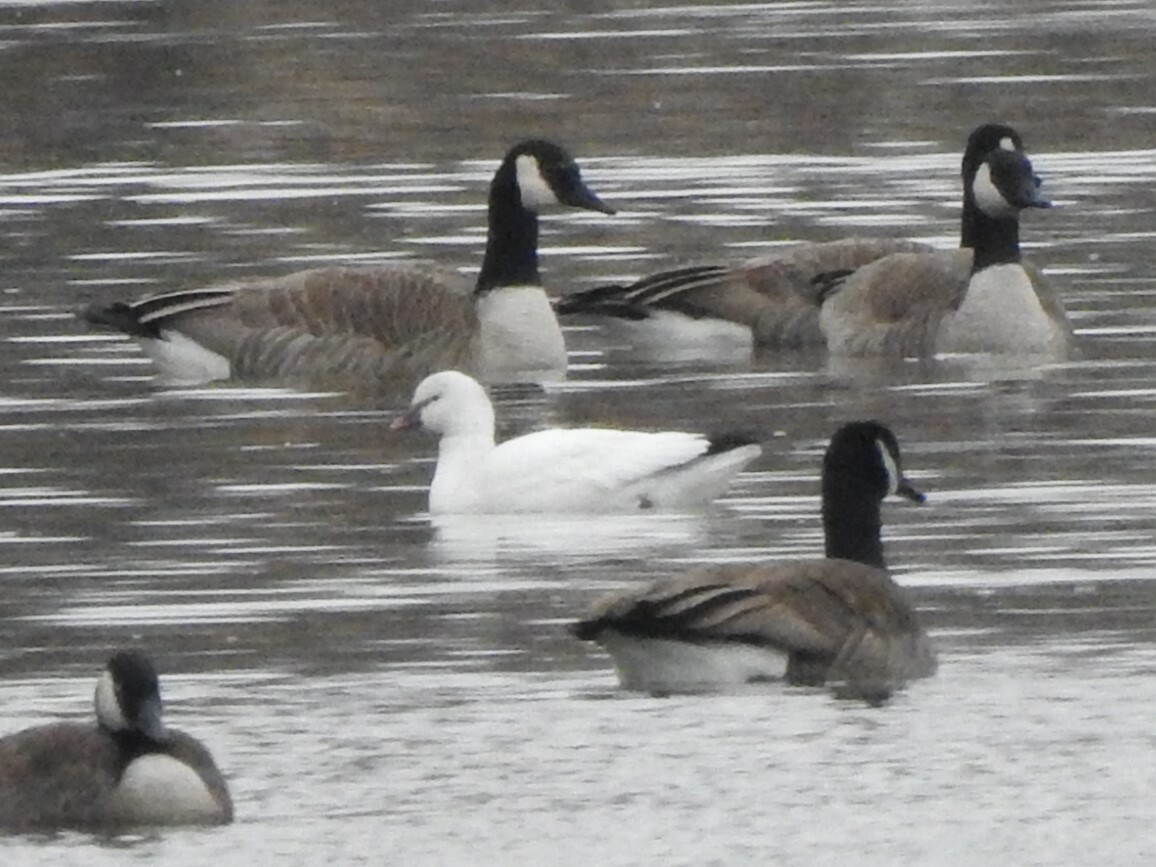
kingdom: Animalia
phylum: Chordata
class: Aves
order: Anseriformes
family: Anatidae
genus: Anser
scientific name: Anser rossii
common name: Ross's goose
